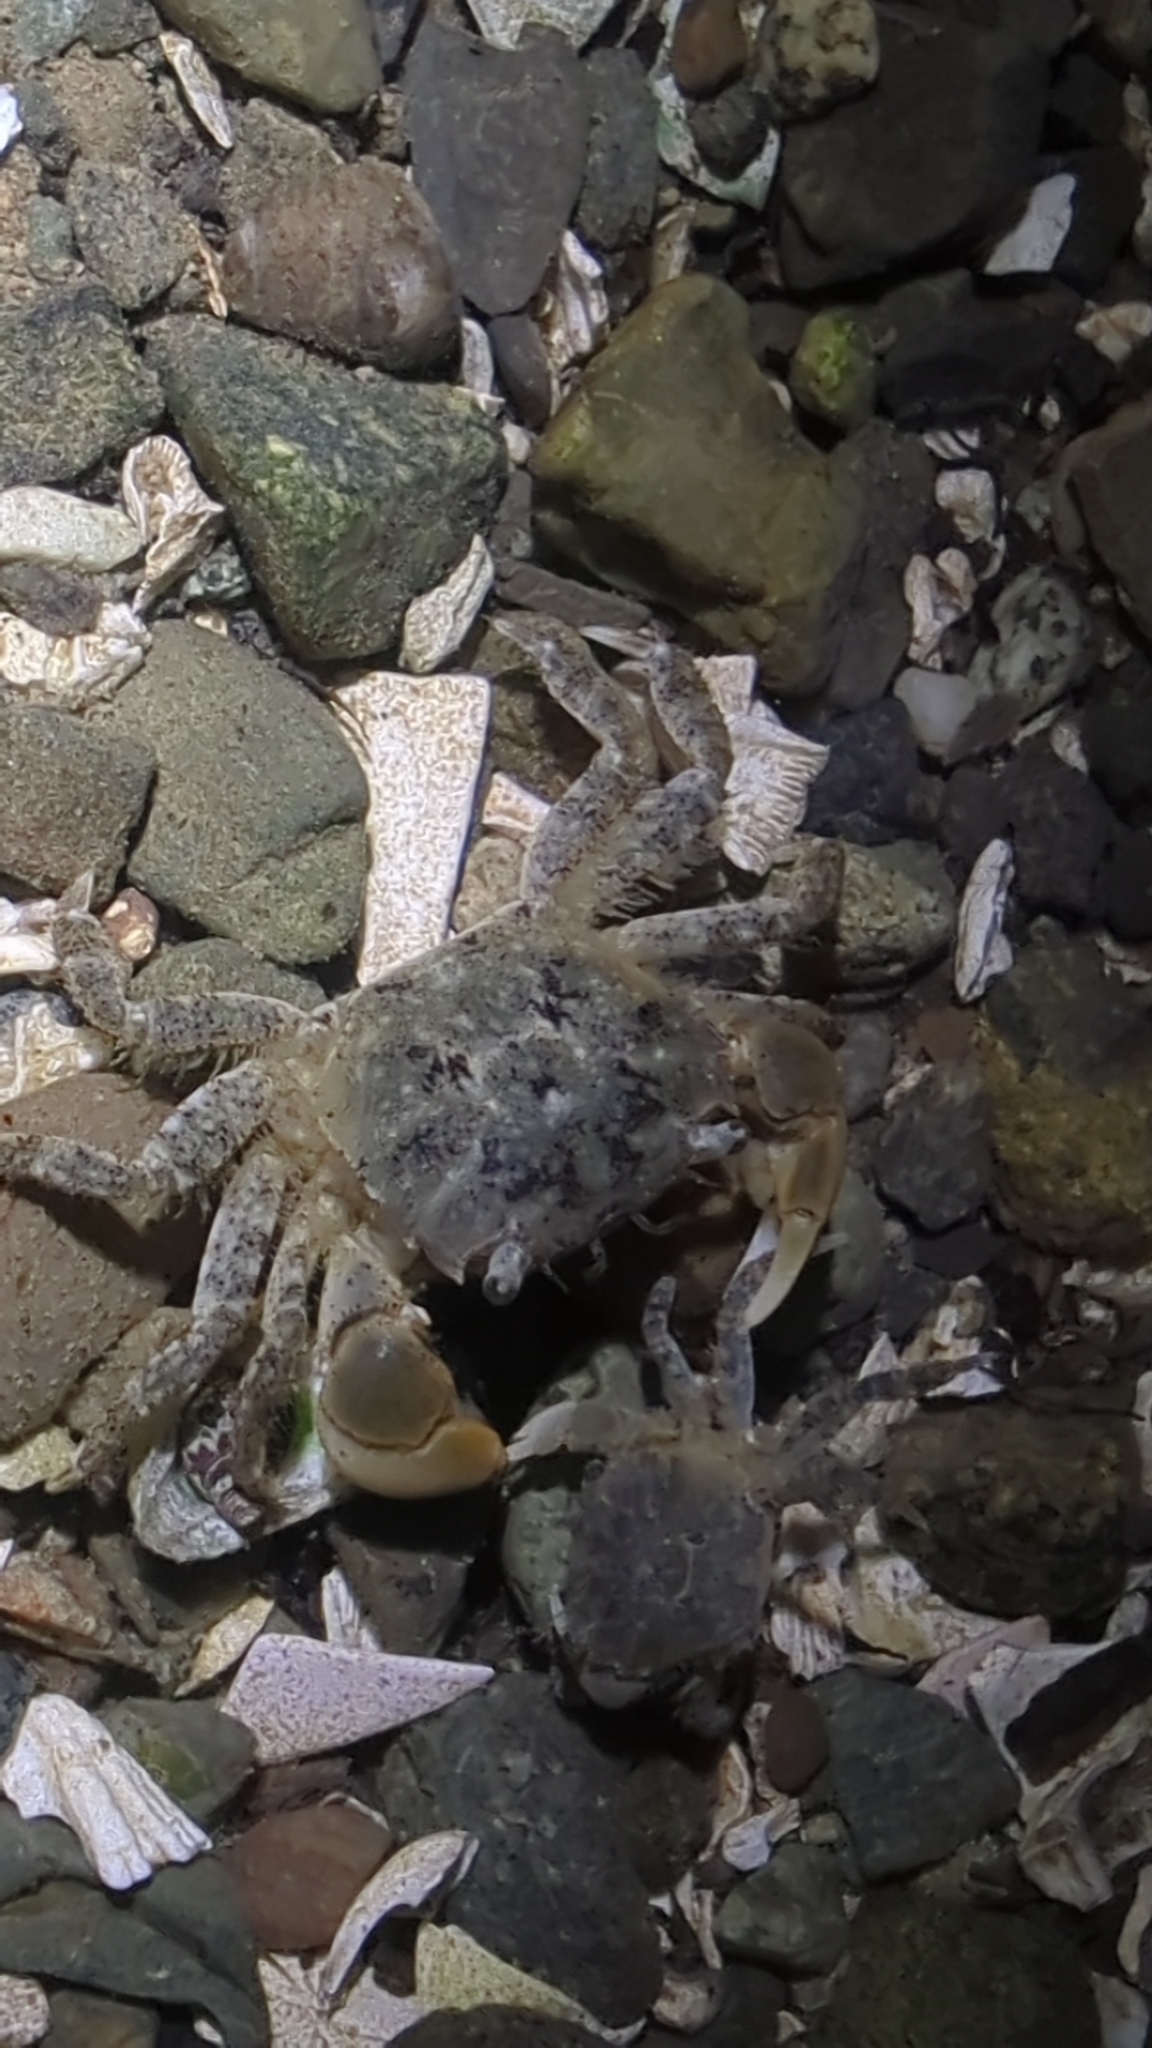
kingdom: Animalia
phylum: Arthropoda
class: Malacostraca
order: Decapoda
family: Varunidae
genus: Hemigrapsus
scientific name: Hemigrapsus oregonensis
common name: Yellow shore crab
